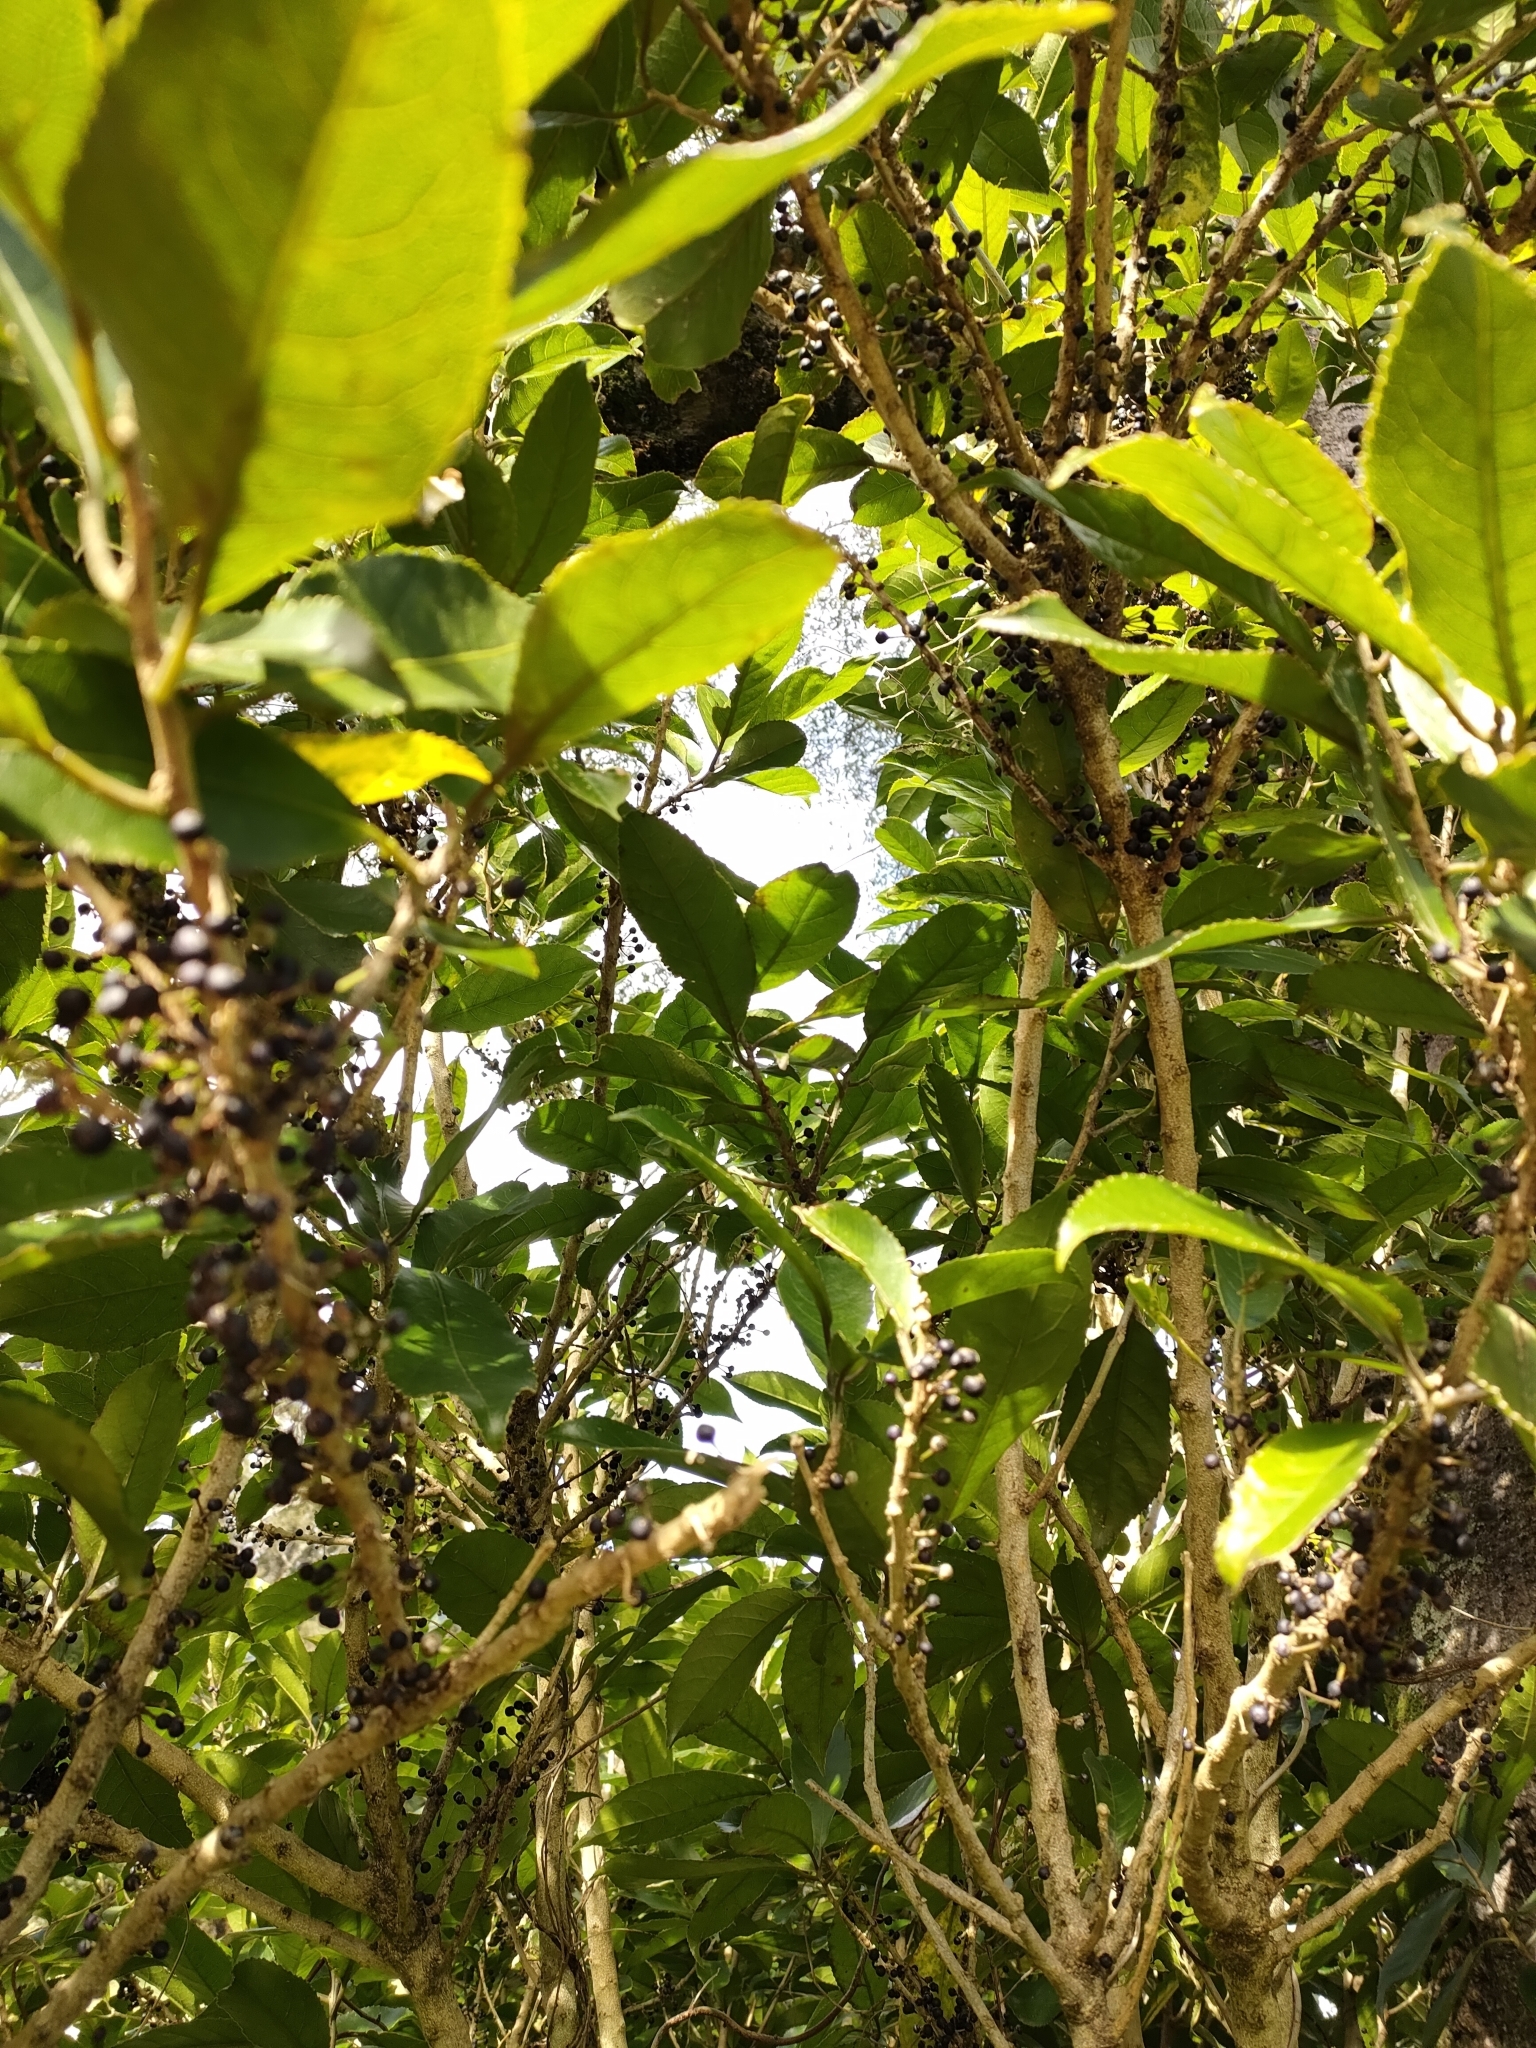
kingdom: Plantae
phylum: Tracheophyta
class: Magnoliopsida
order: Malpighiales
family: Violaceae
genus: Melicytus
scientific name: Melicytus ramiflorus
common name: Mahoe
